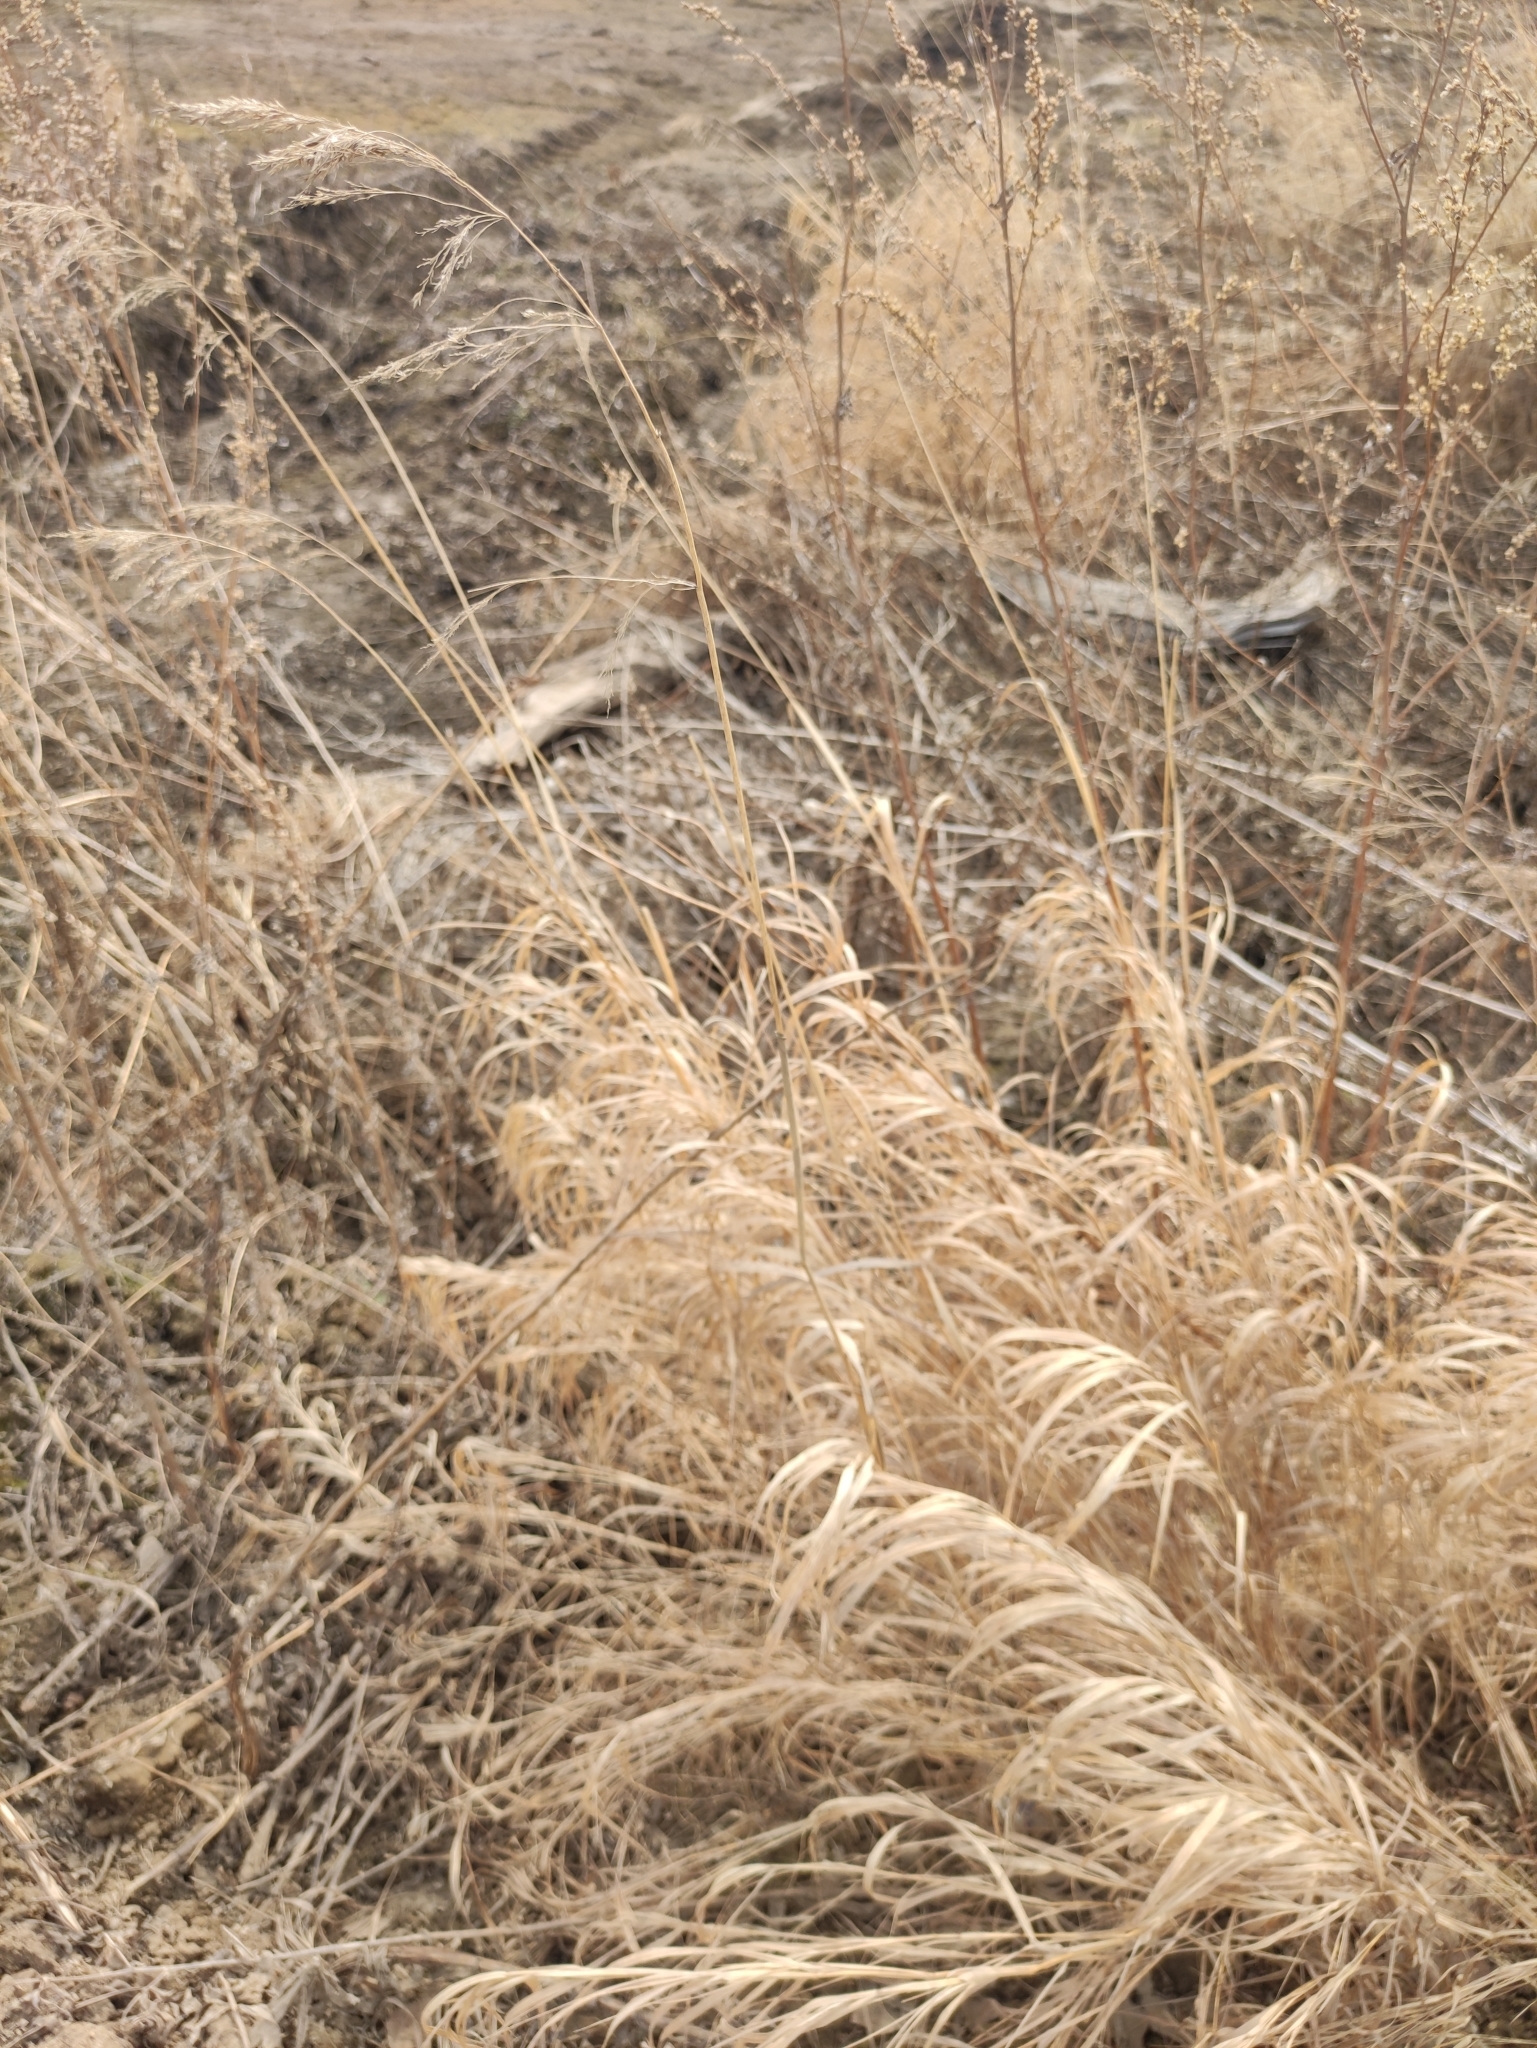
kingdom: Plantae
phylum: Tracheophyta
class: Liliopsida
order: Poales
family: Poaceae
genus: Calamagrostis
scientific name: Calamagrostis purpurea
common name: Scandinavian small-reed
